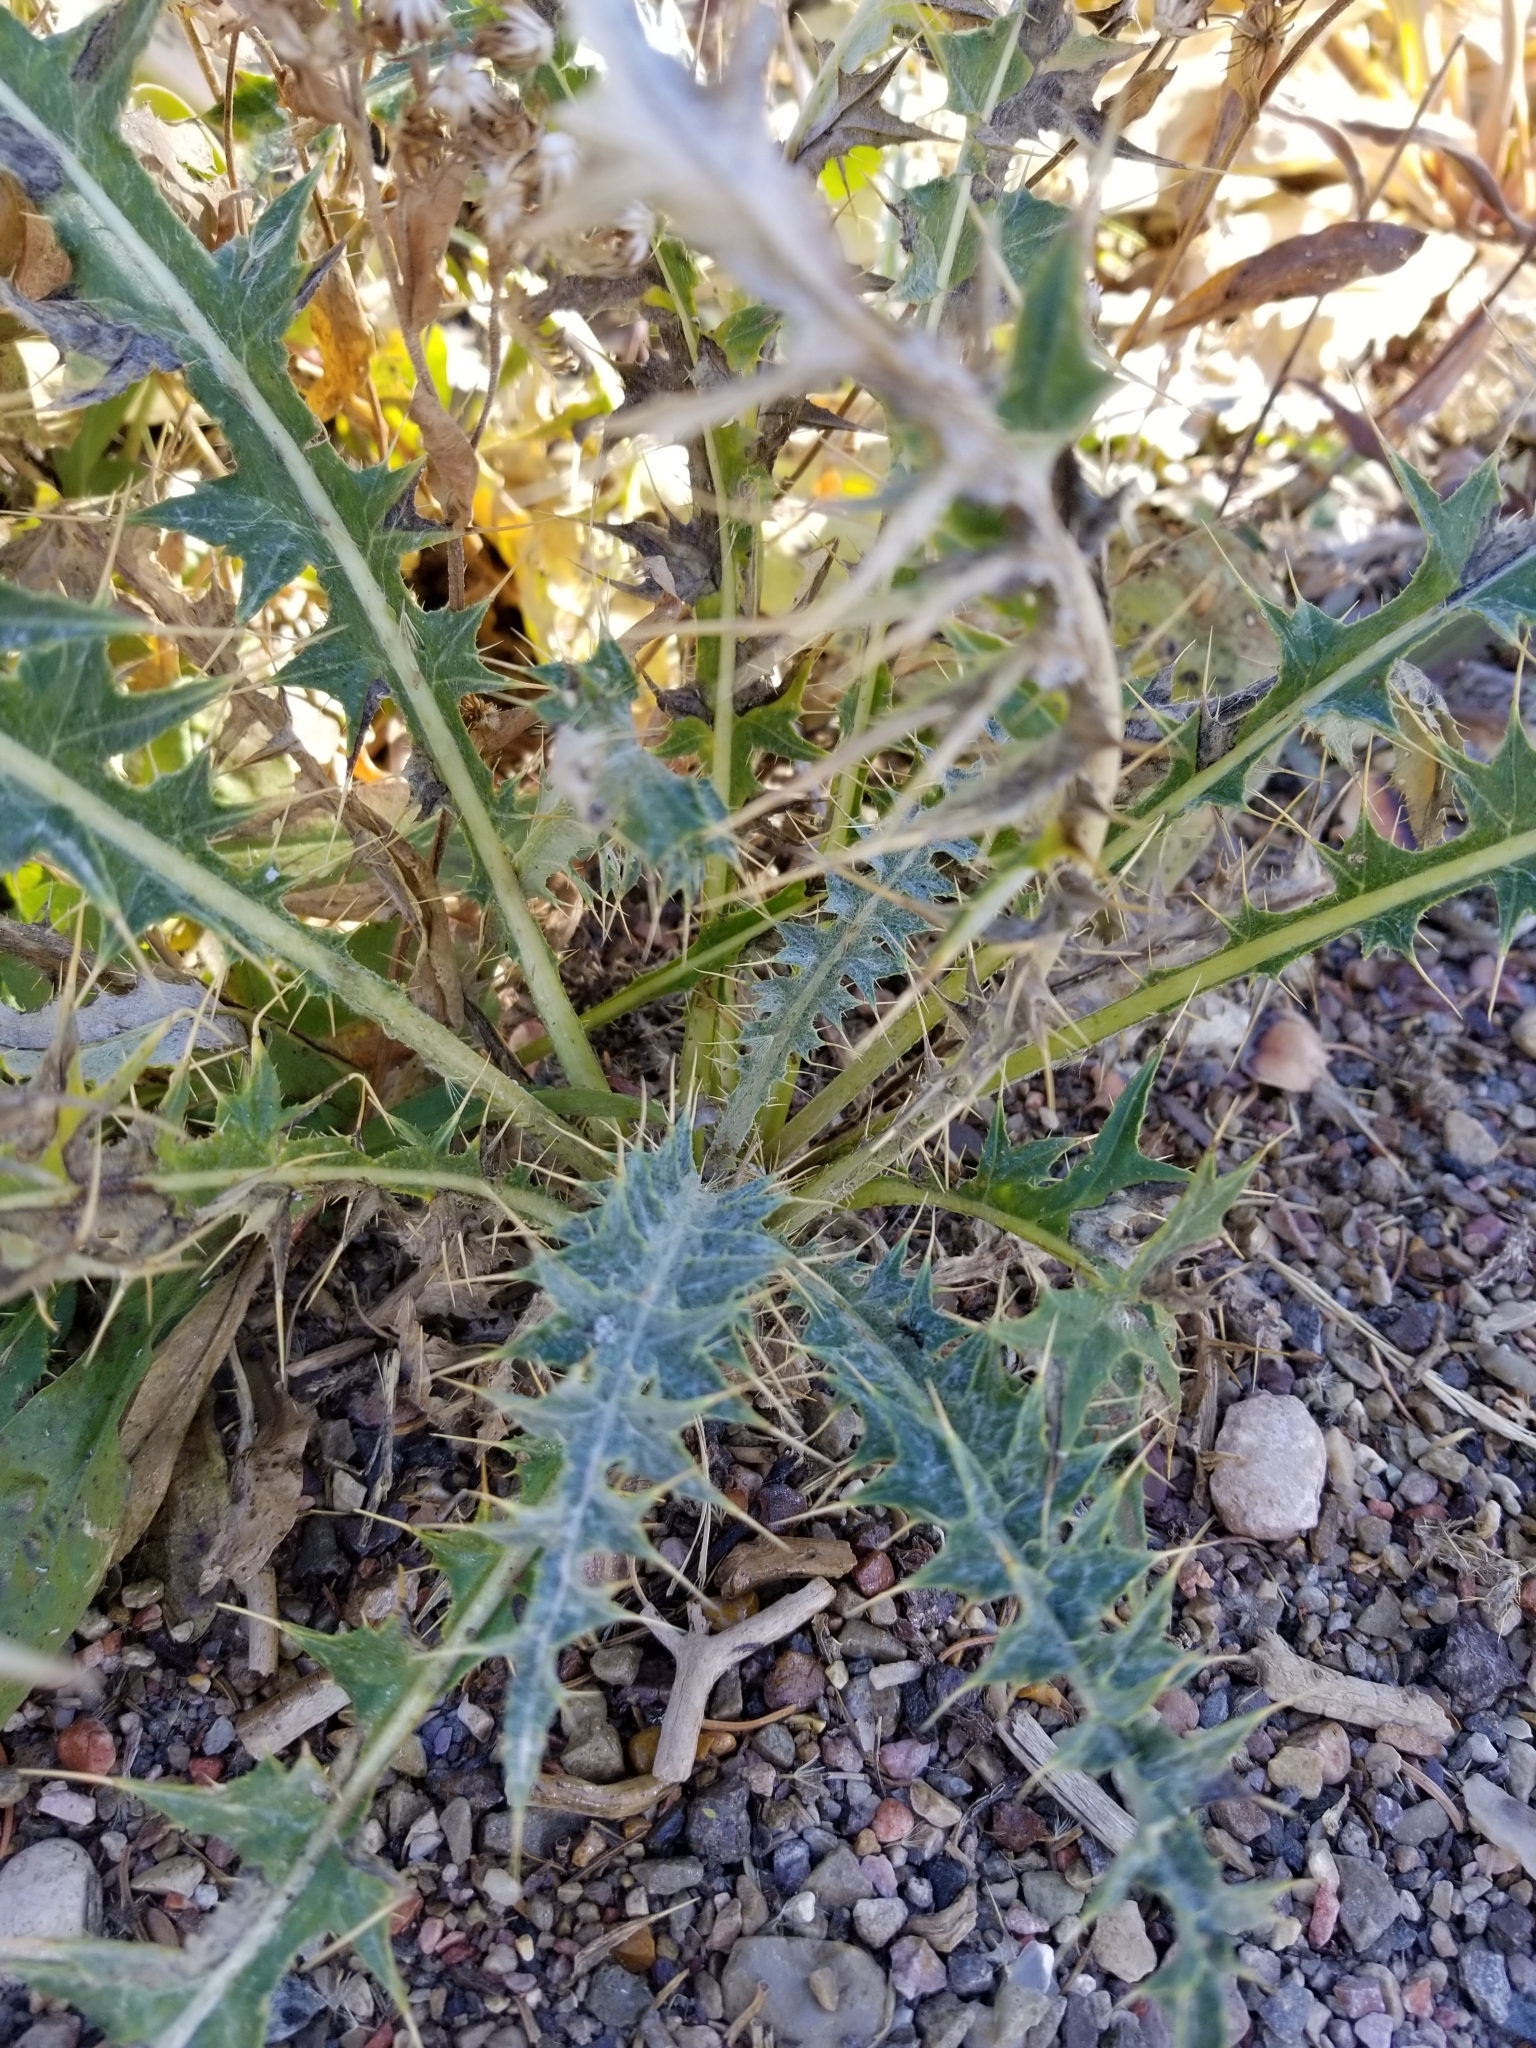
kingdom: Plantae
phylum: Tracheophyta
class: Magnoliopsida
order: Asterales
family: Asteraceae
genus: Cirsium
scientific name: Cirsium arizonicum
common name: Arizona thistle
